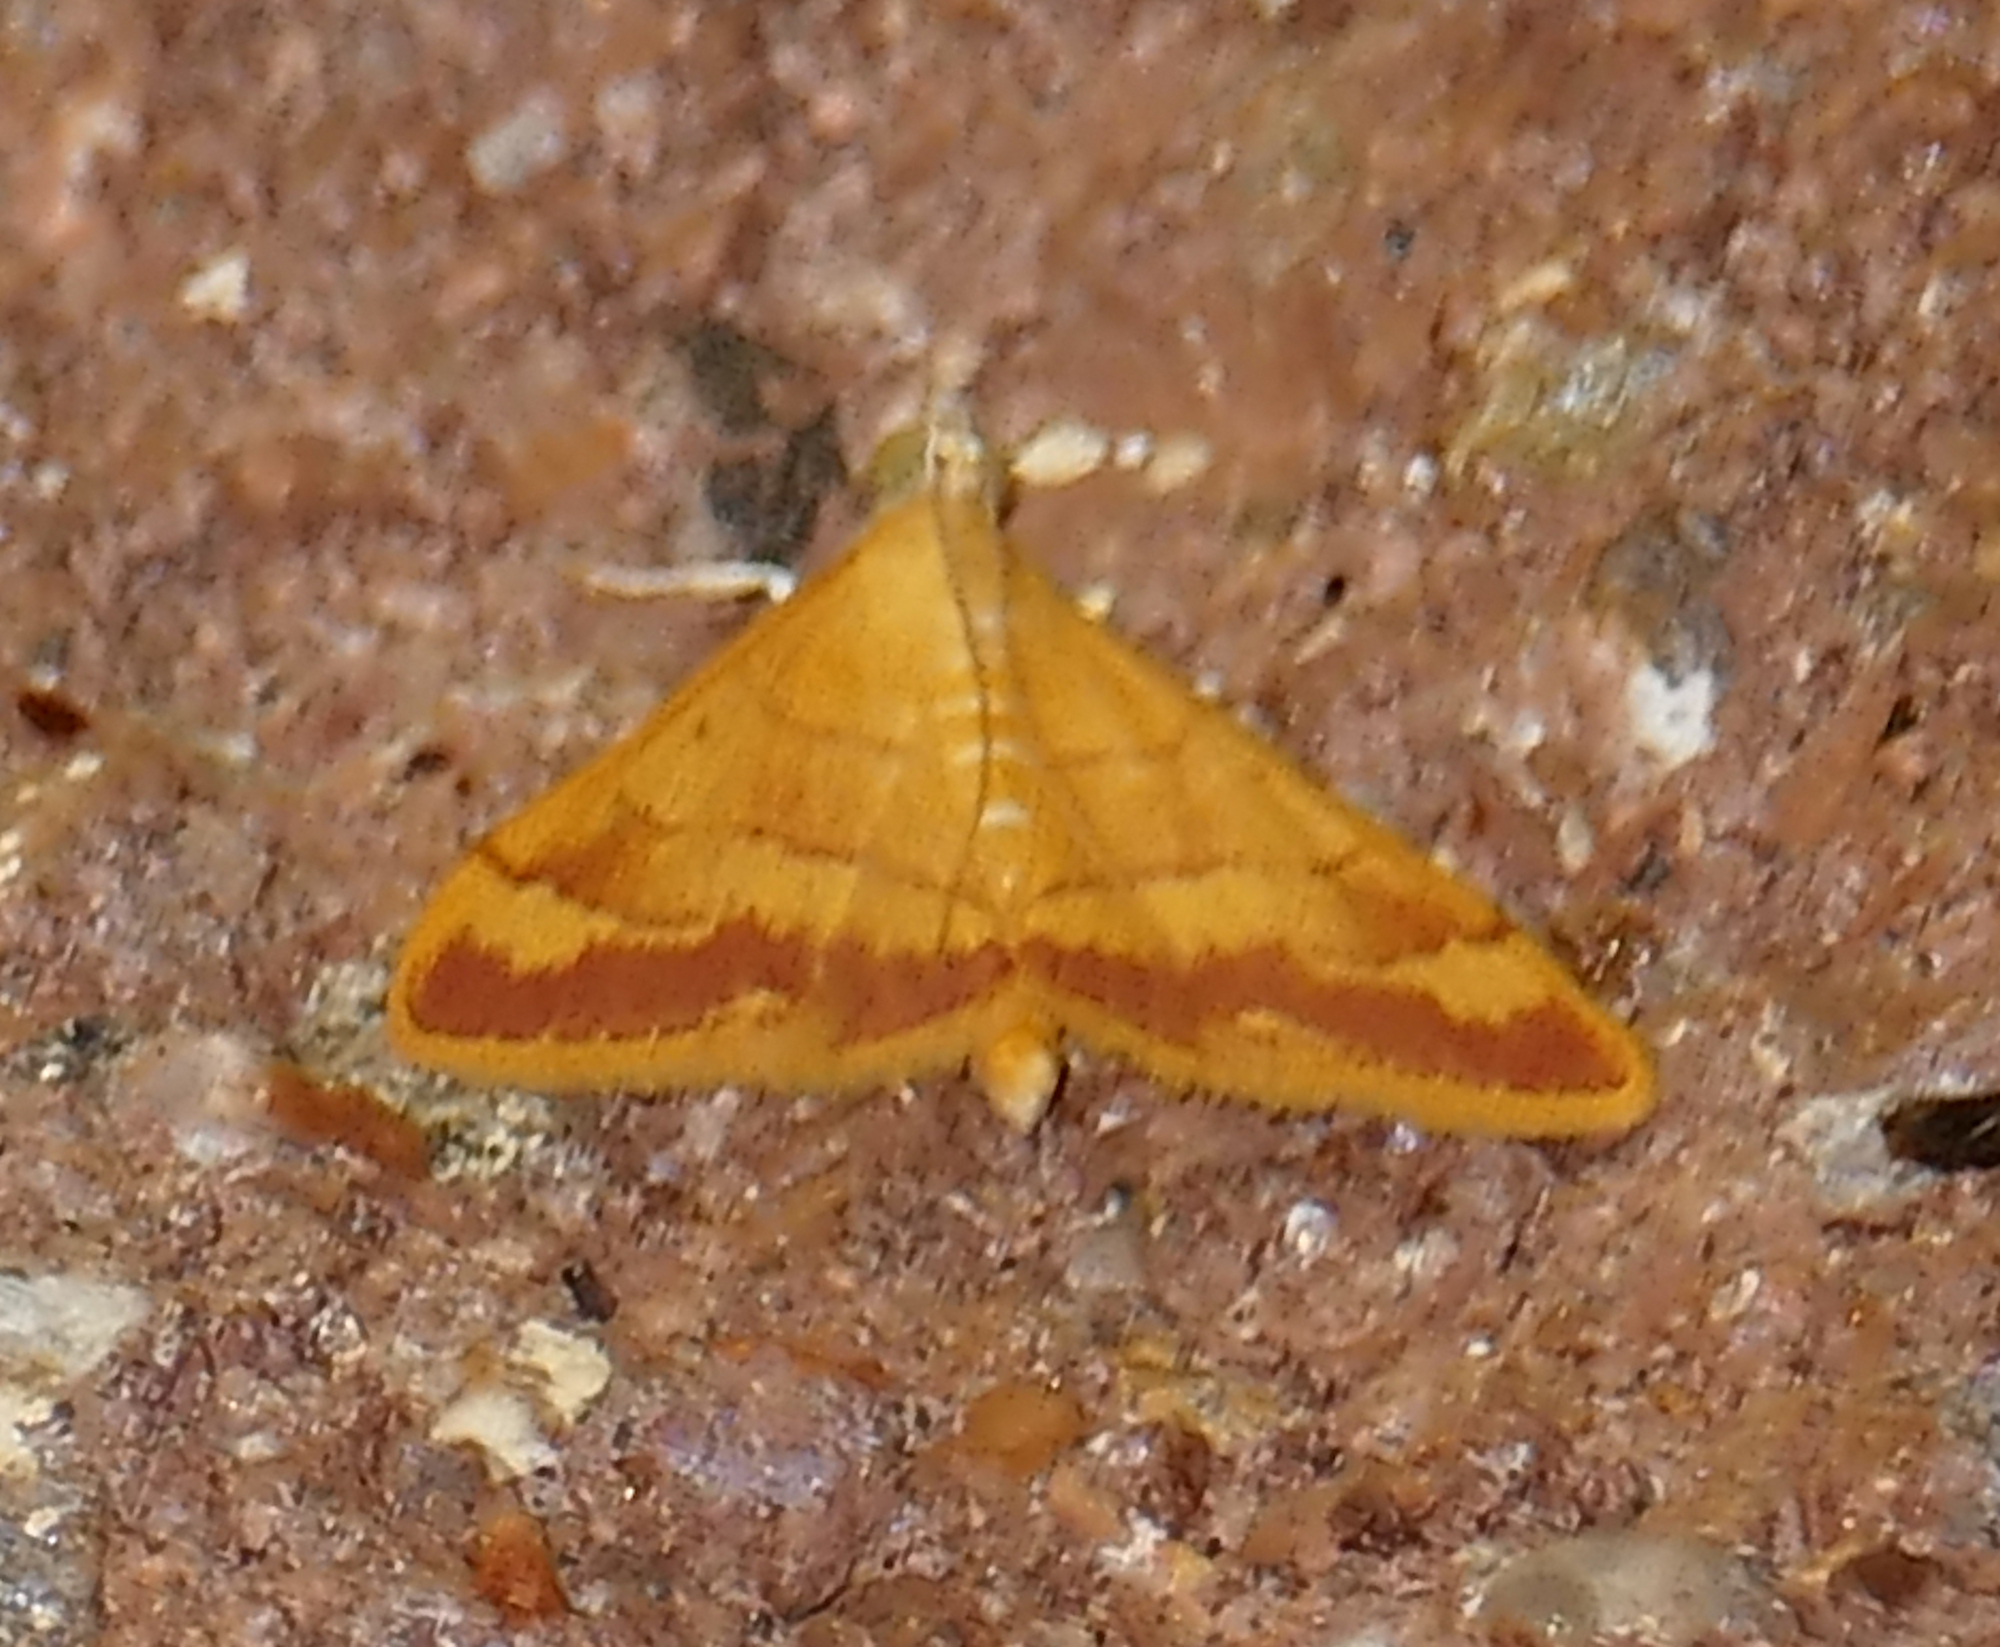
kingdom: Animalia
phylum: Arthropoda
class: Insecta
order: Lepidoptera
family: Crambidae
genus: Pyrausta
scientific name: Pyrausta pseudonythesalis
